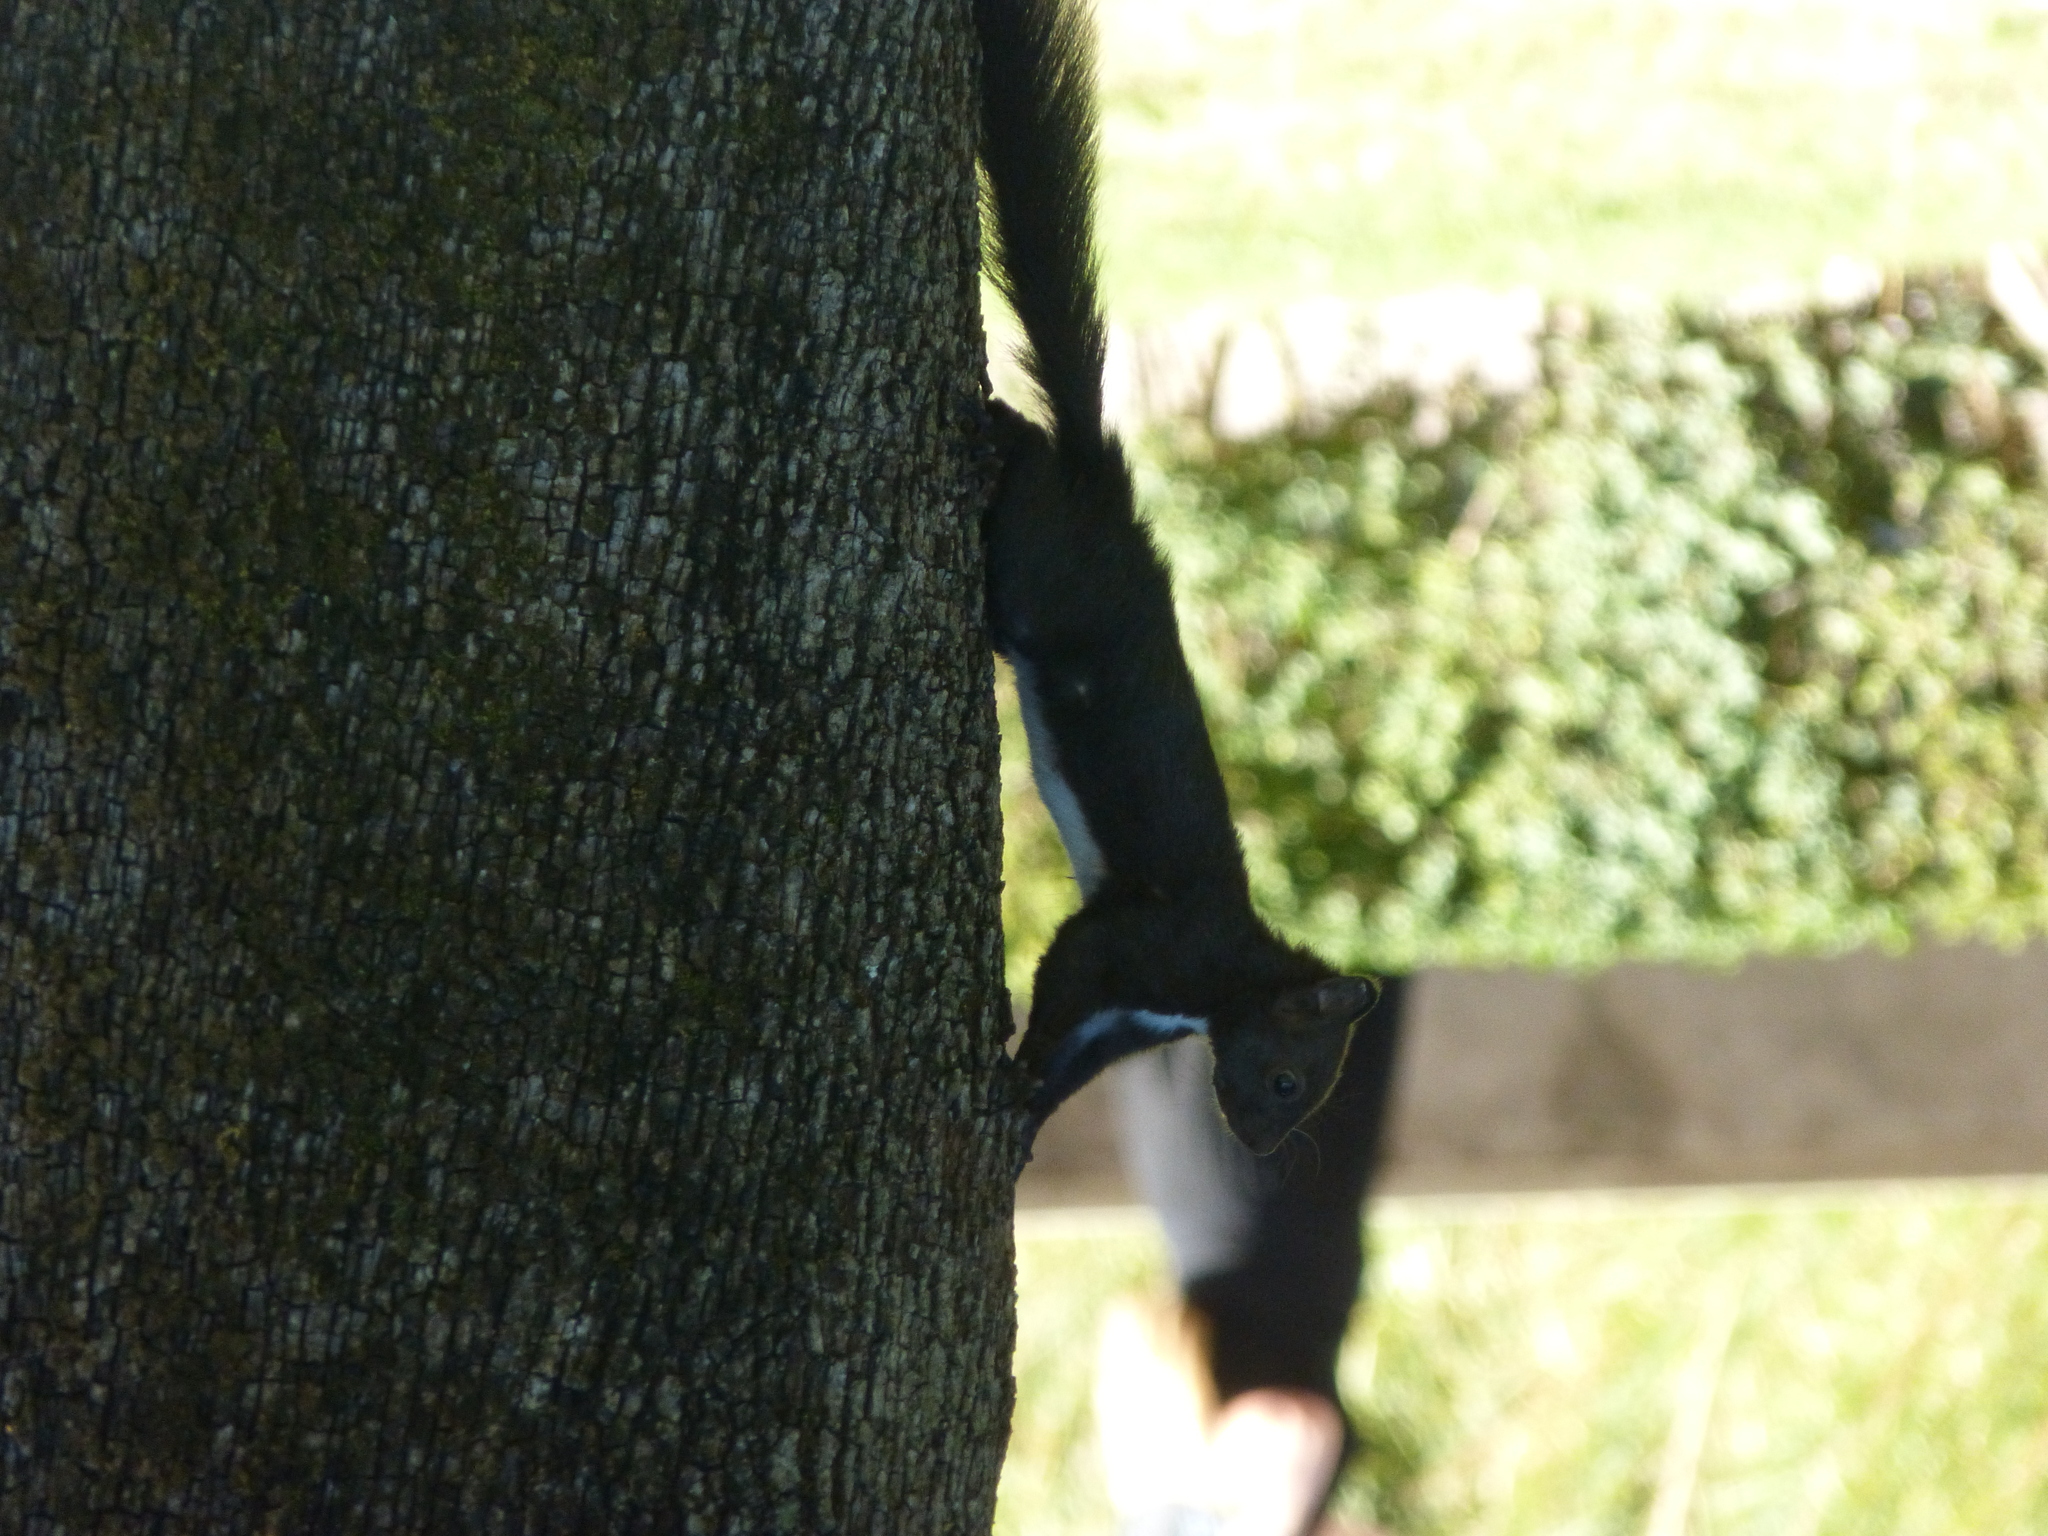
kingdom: Animalia
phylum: Chordata
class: Mammalia
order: Rodentia
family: Sciuridae
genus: Sciurus
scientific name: Sciurus vulgaris
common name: Eurasian red squirrel
